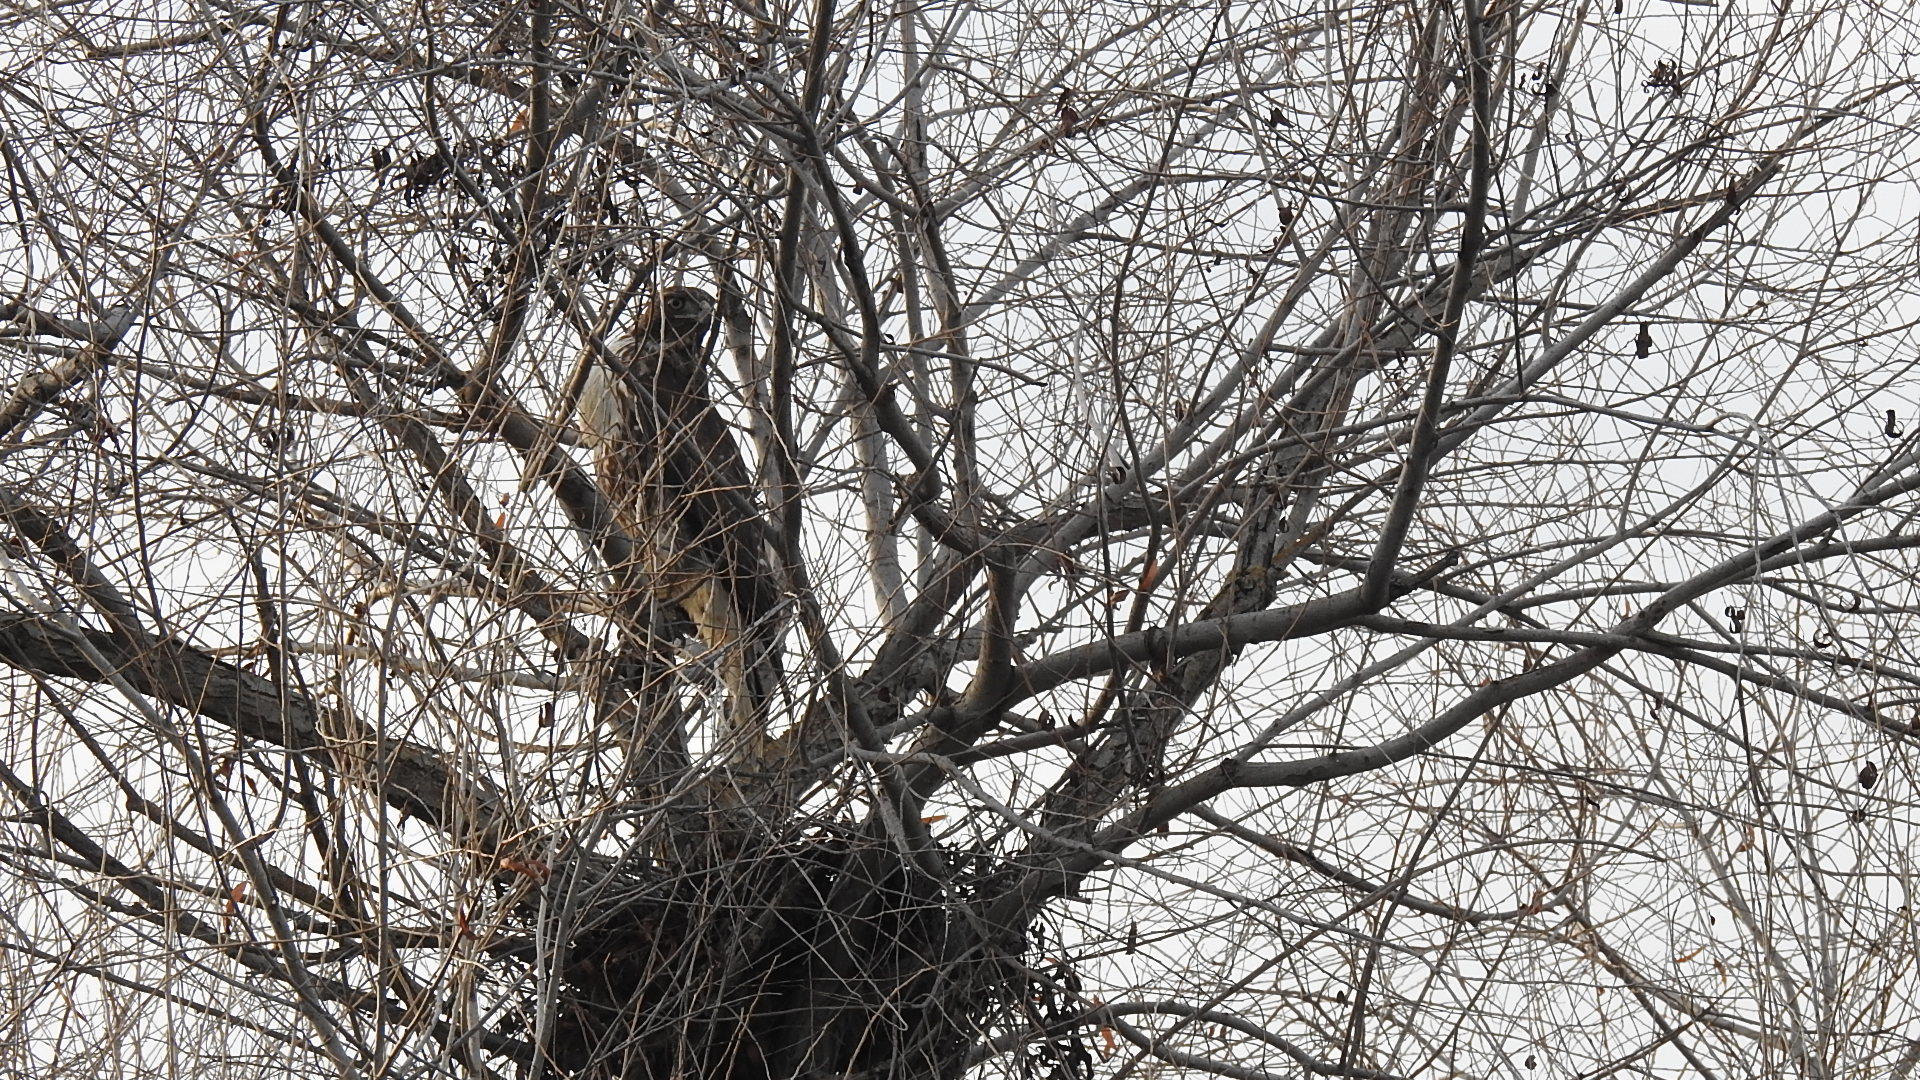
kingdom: Animalia
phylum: Chordata
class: Aves
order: Accipitriformes
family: Accipitridae
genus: Buteo
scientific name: Buteo jamaicensis
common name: Red-tailed hawk
